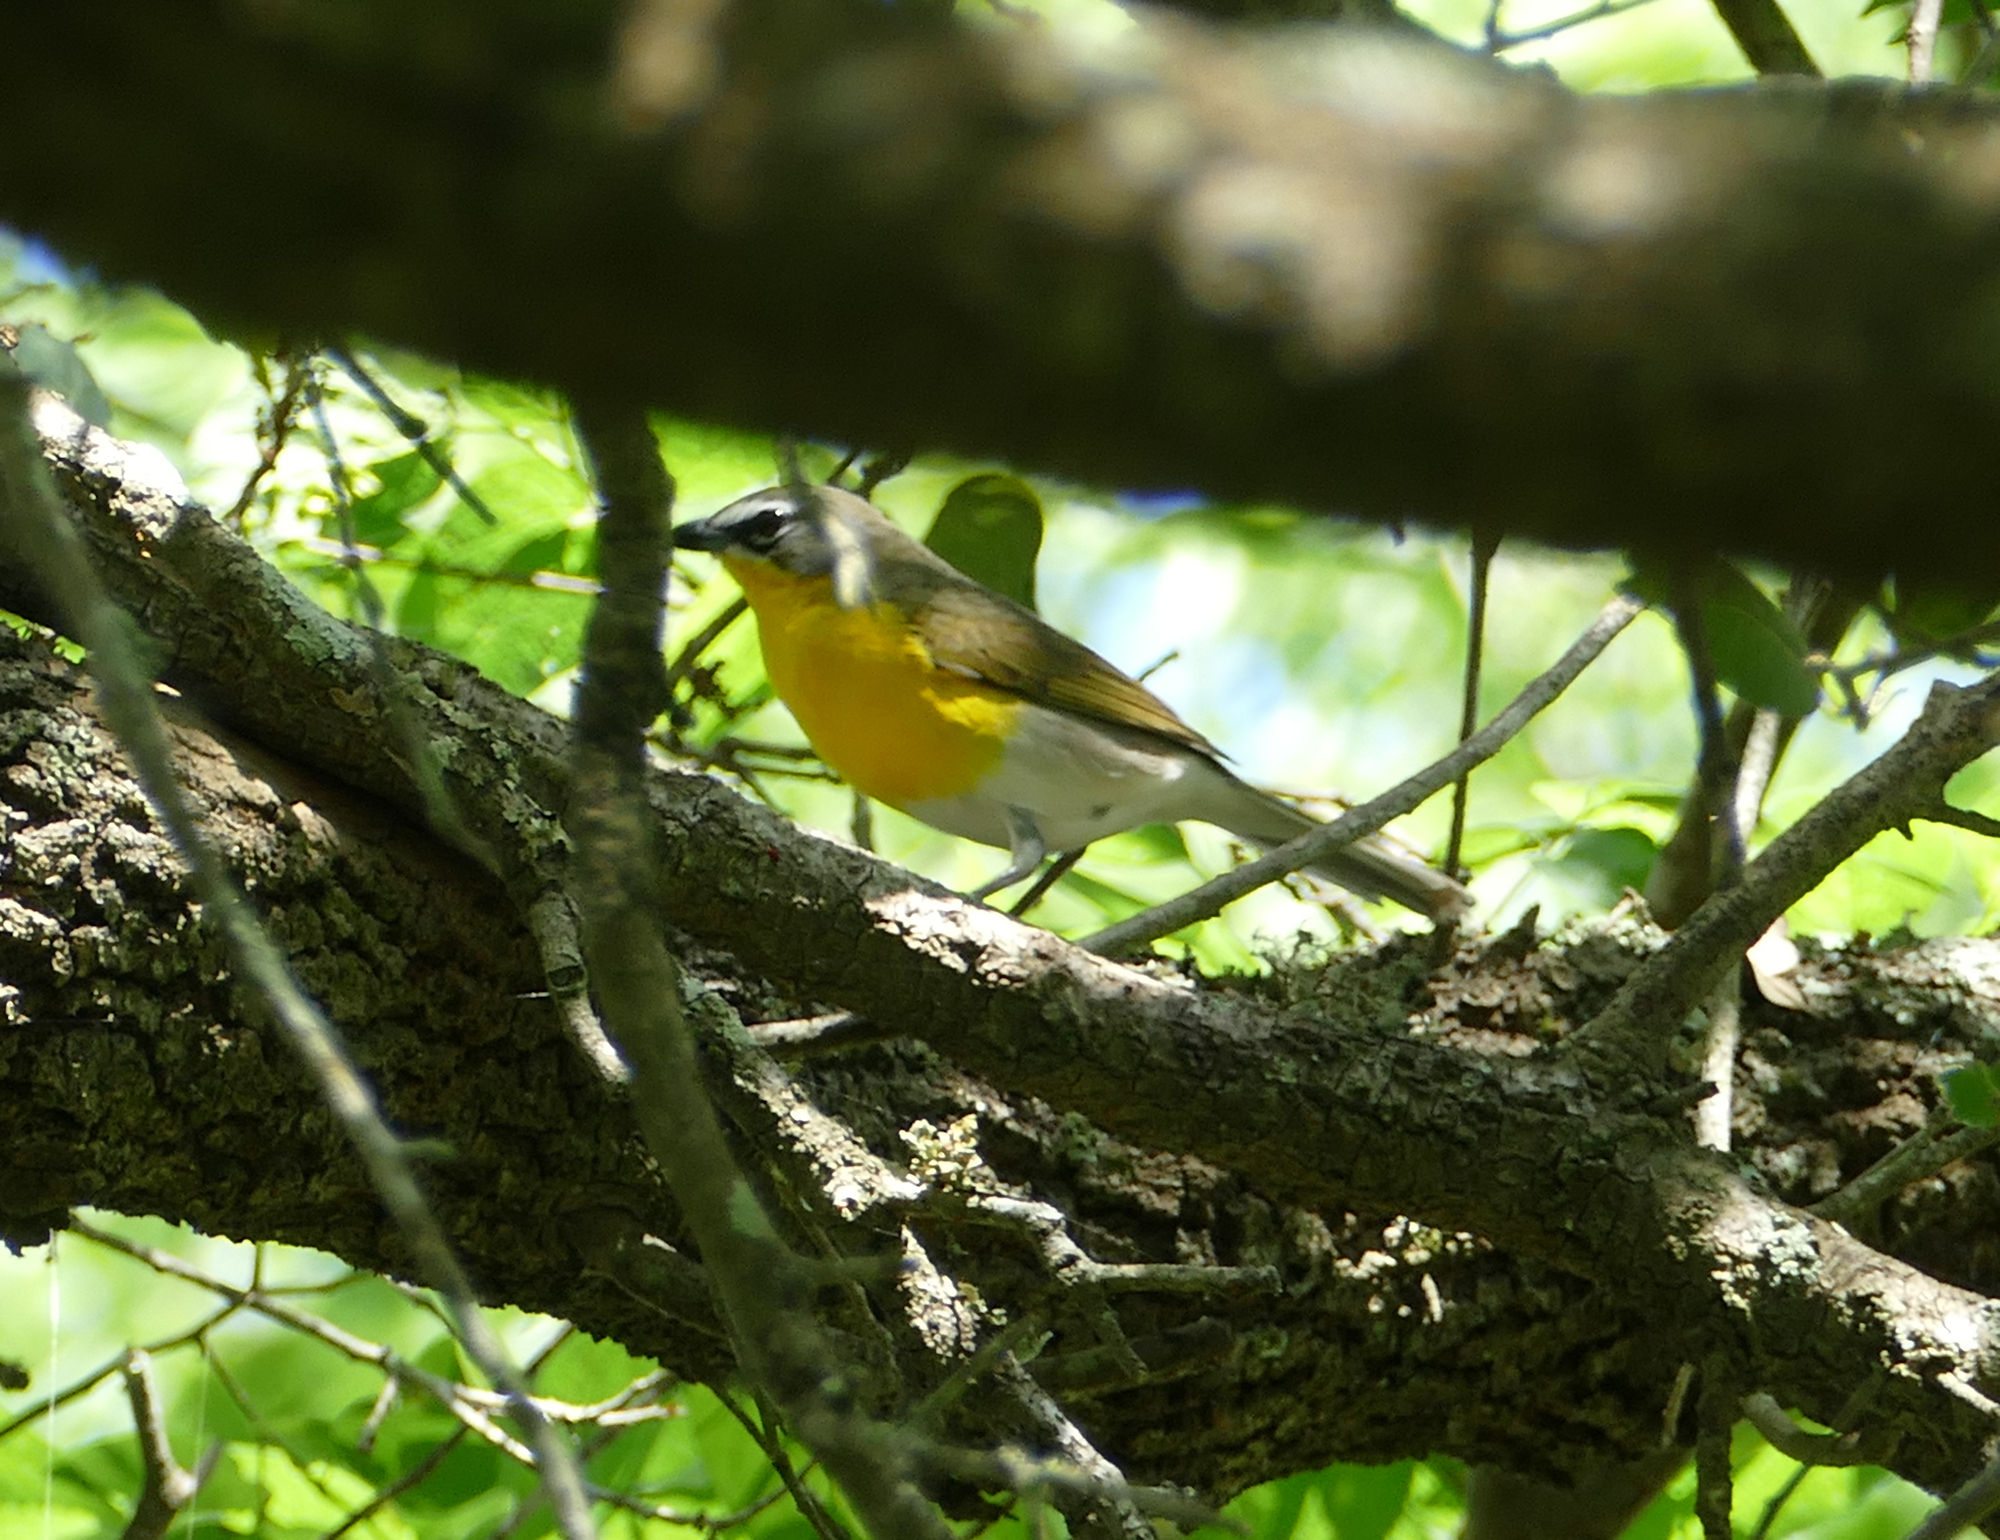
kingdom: Animalia
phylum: Chordata
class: Aves
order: Passeriformes
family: Parulidae
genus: Icteria
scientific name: Icteria virens
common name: Yellow-breasted chat
